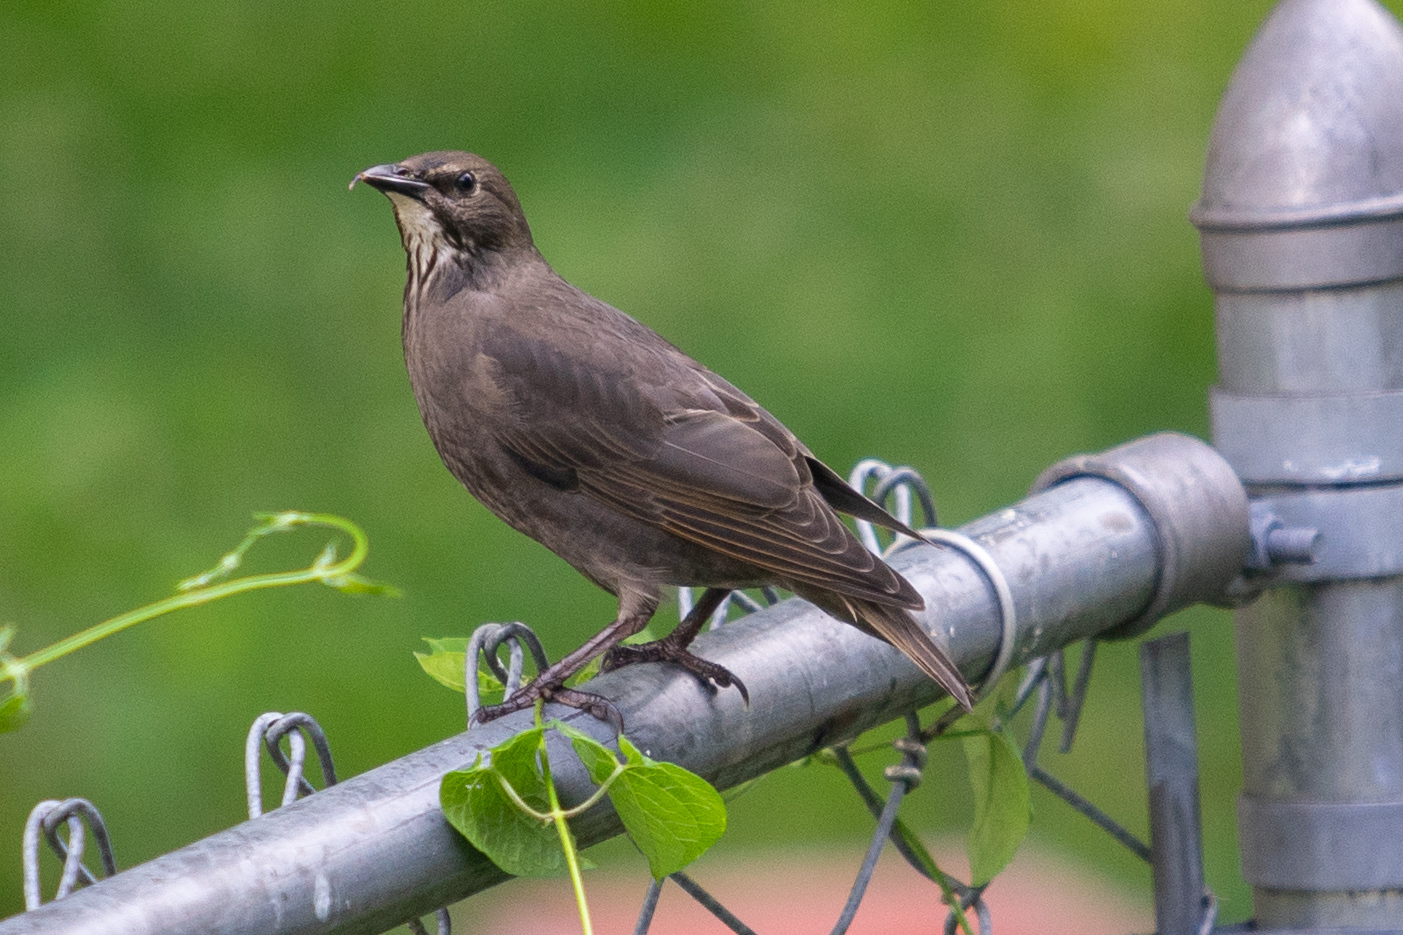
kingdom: Animalia
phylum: Chordata
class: Aves
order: Passeriformes
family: Sturnidae
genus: Sturnus
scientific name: Sturnus vulgaris
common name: Common starling
